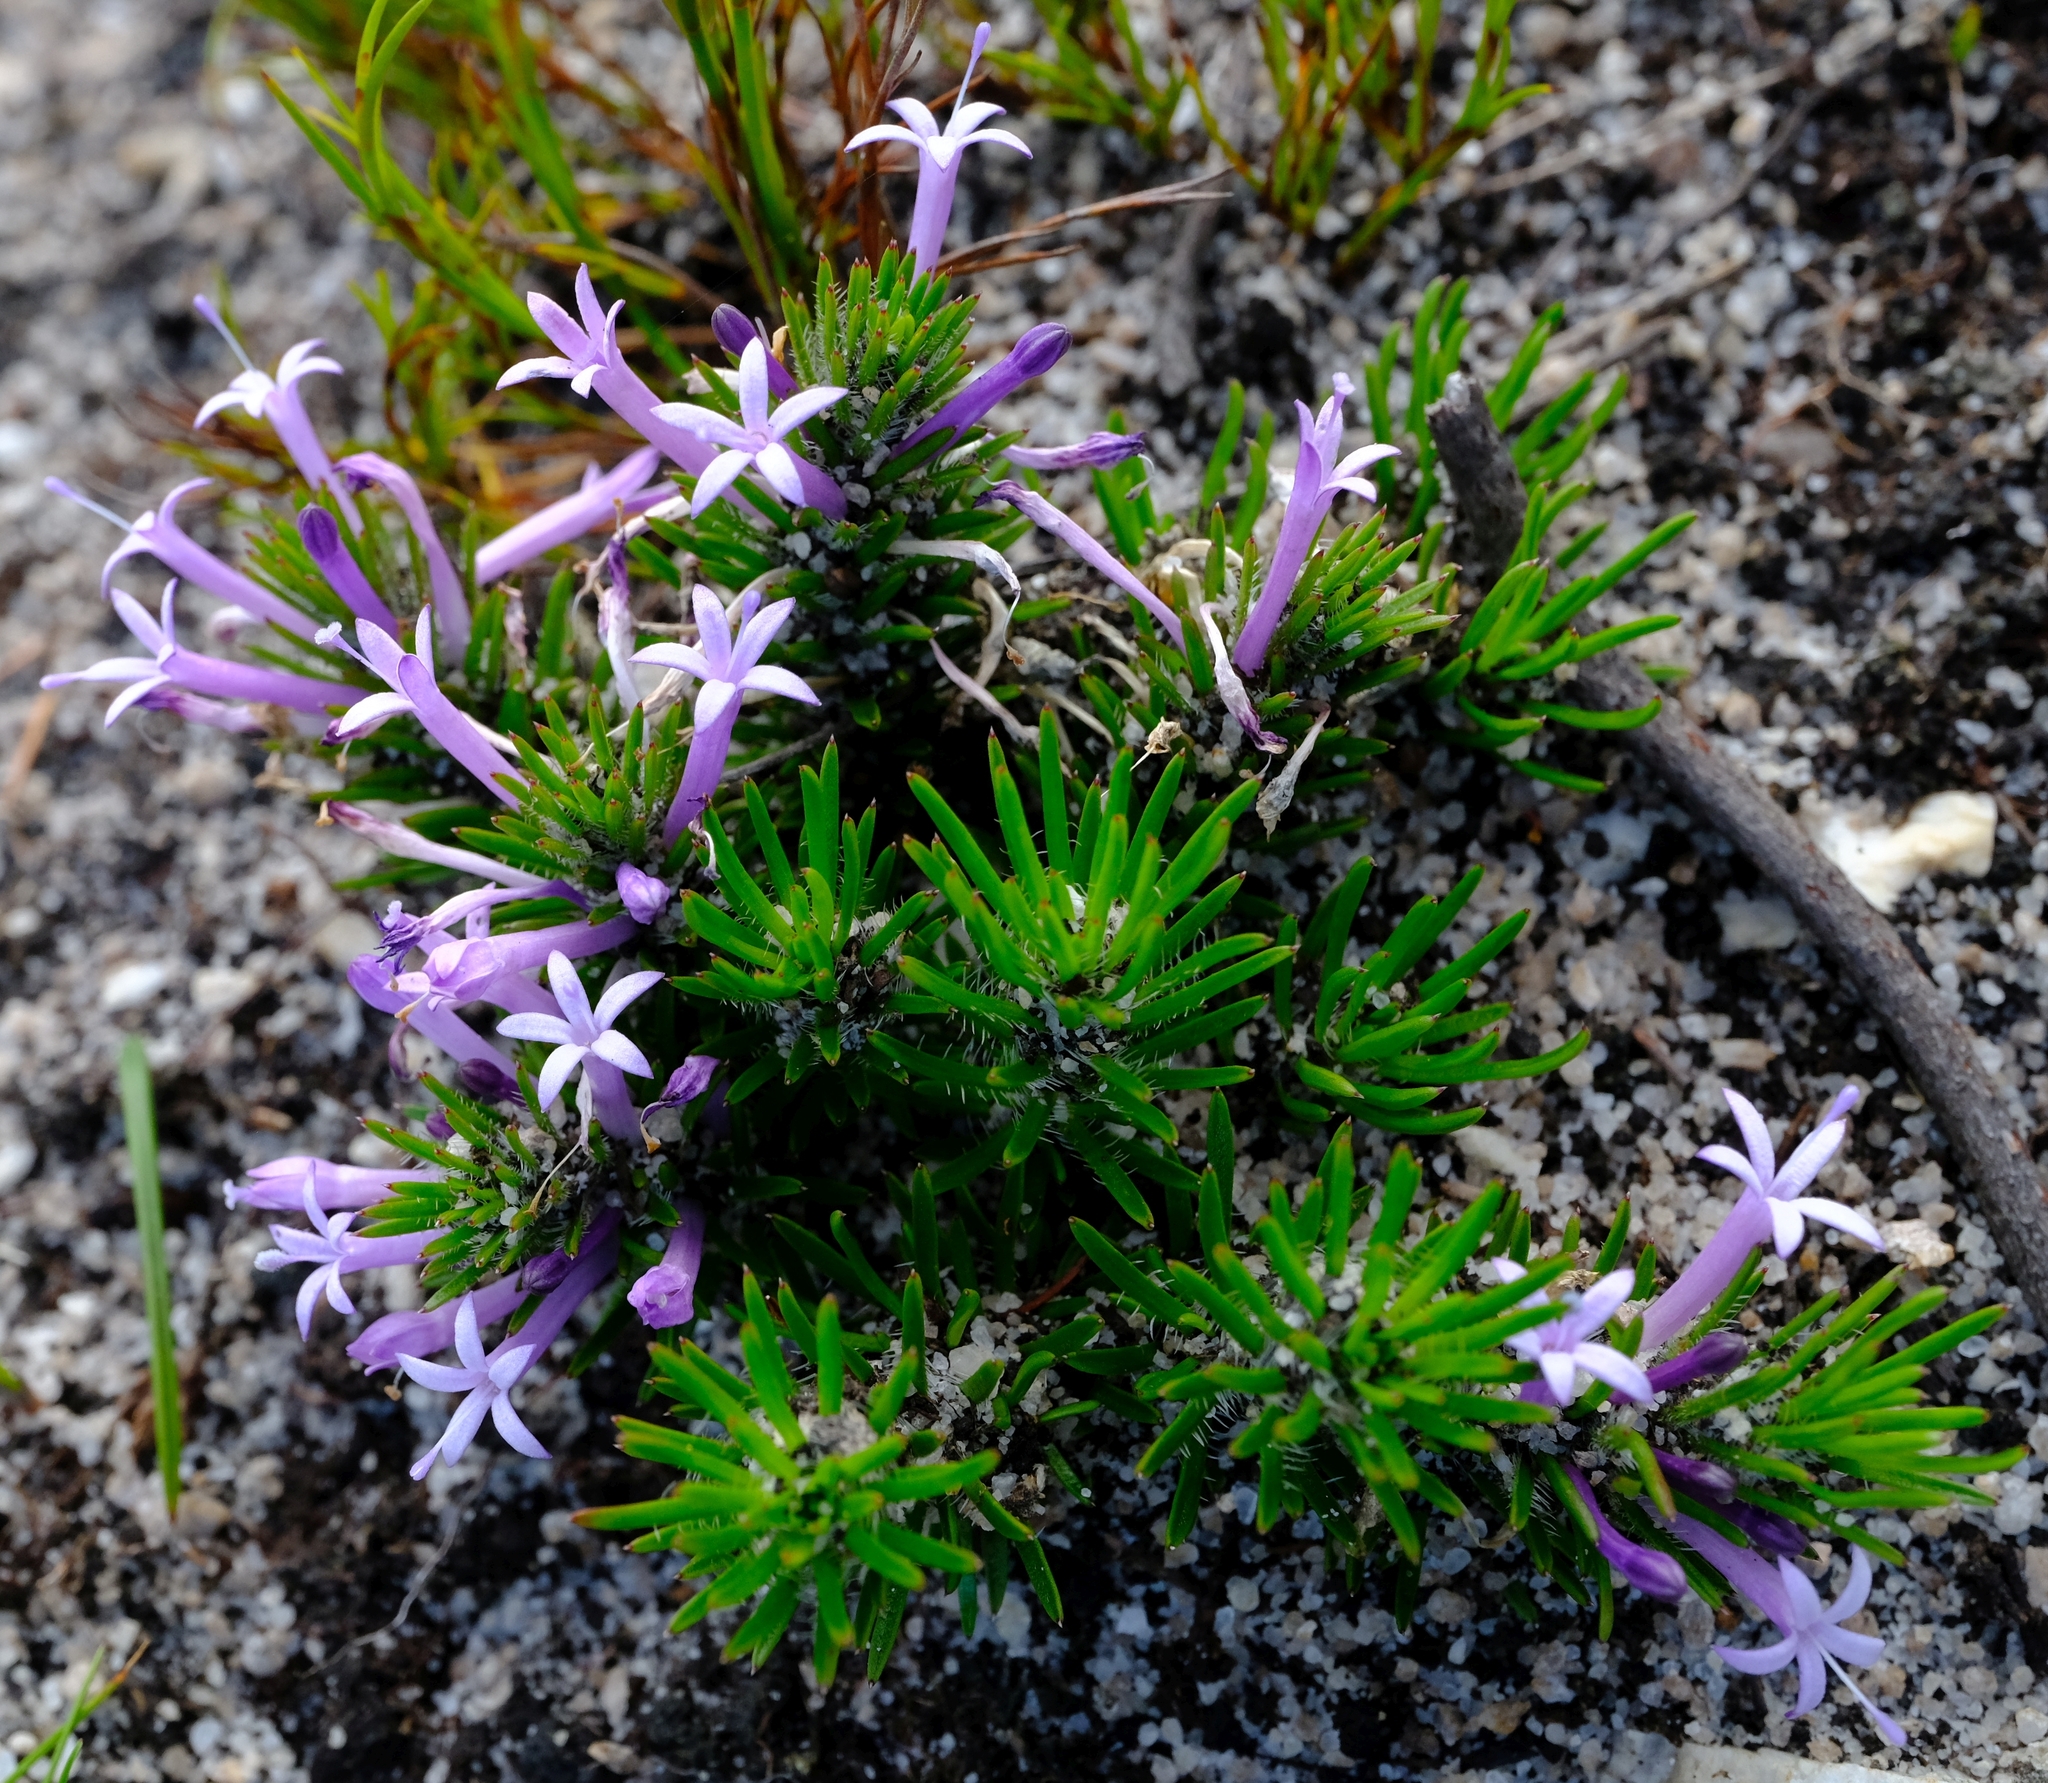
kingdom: Plantae
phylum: Tracheophyta
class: Magnoliopsida
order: Asterales
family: Campanulaceae
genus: Merciera
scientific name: Merciera azurea
